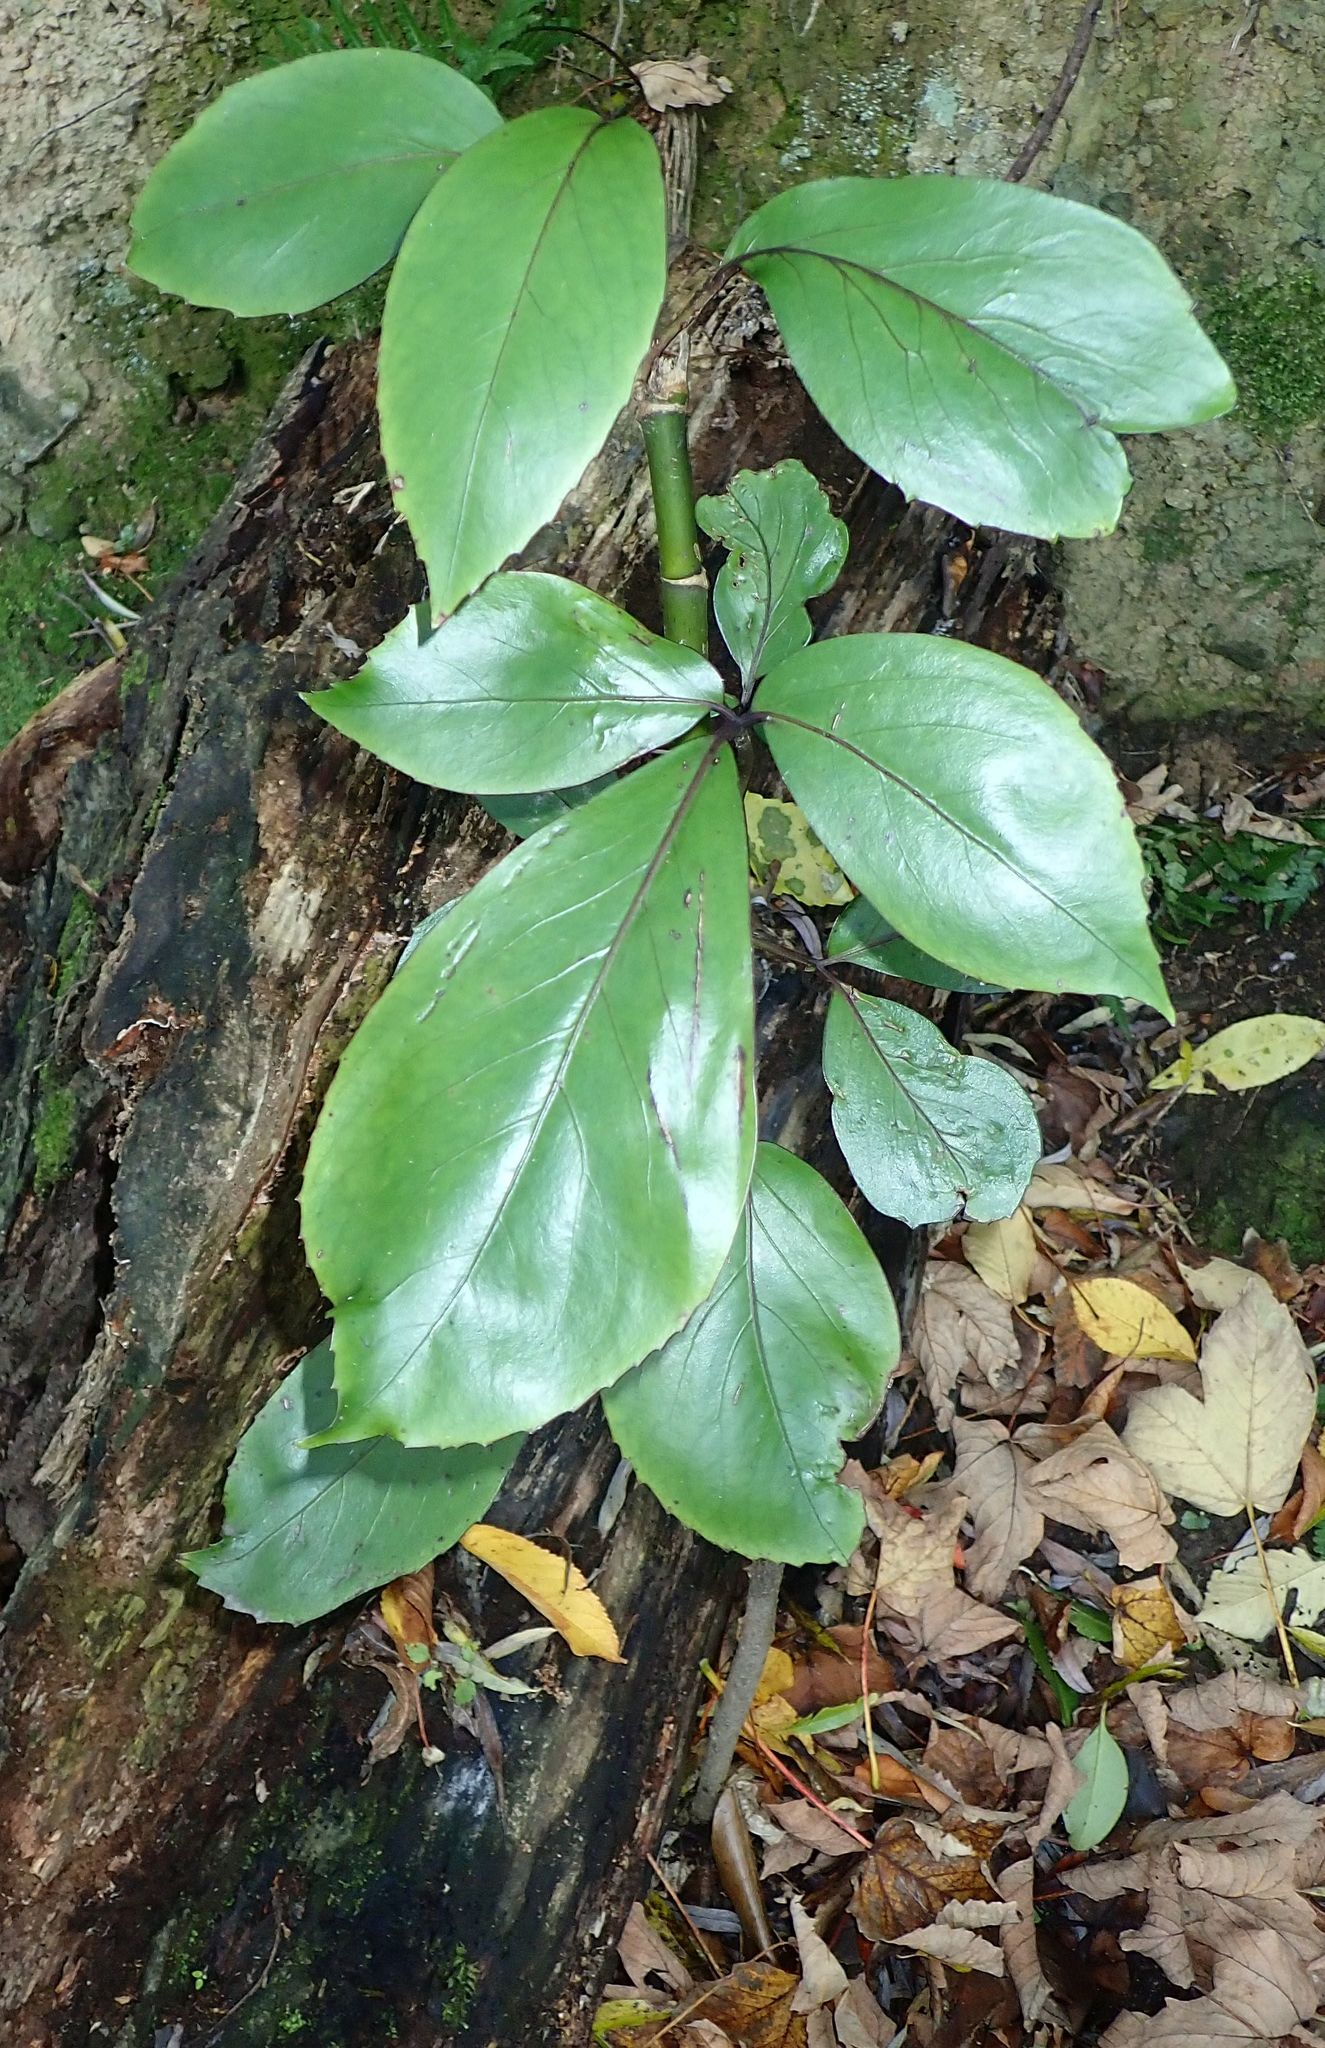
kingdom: Plantae
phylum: Tracheophyta
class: Magnoliopsida
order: Apiales
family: Araliaceae
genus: Neopanax
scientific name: Neopanax laetus
